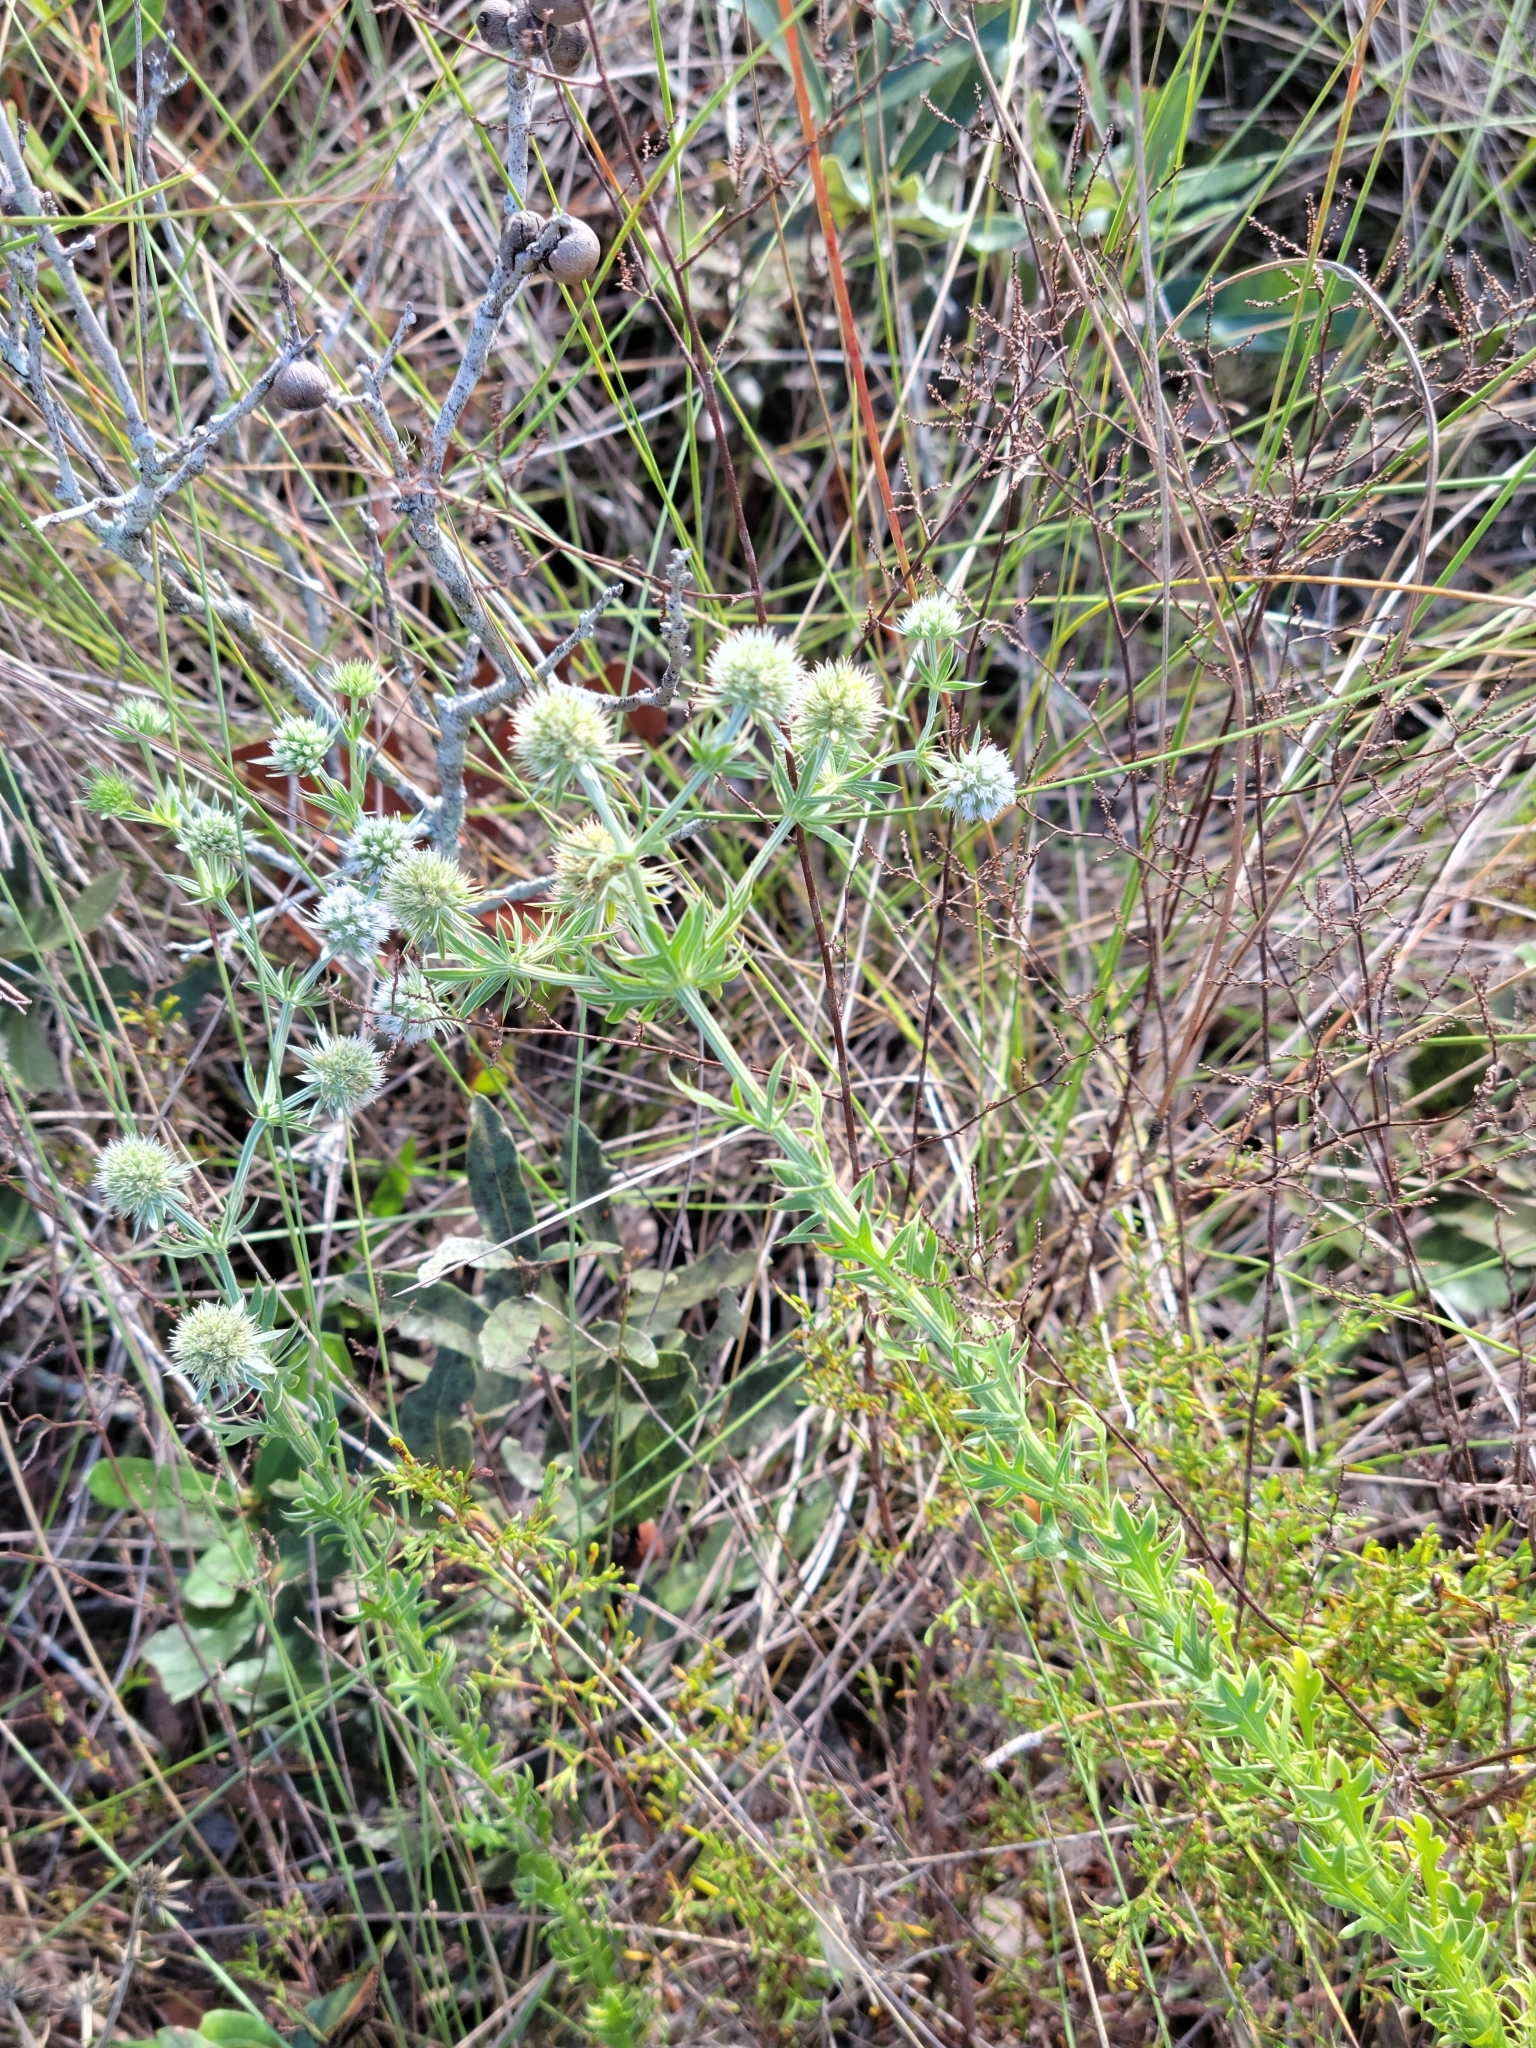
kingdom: Plantae
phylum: Tracheophyta
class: Magnoliopsida
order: Apiales
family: Apiaceae
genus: Eryngium
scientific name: Eryngium aromaticum
